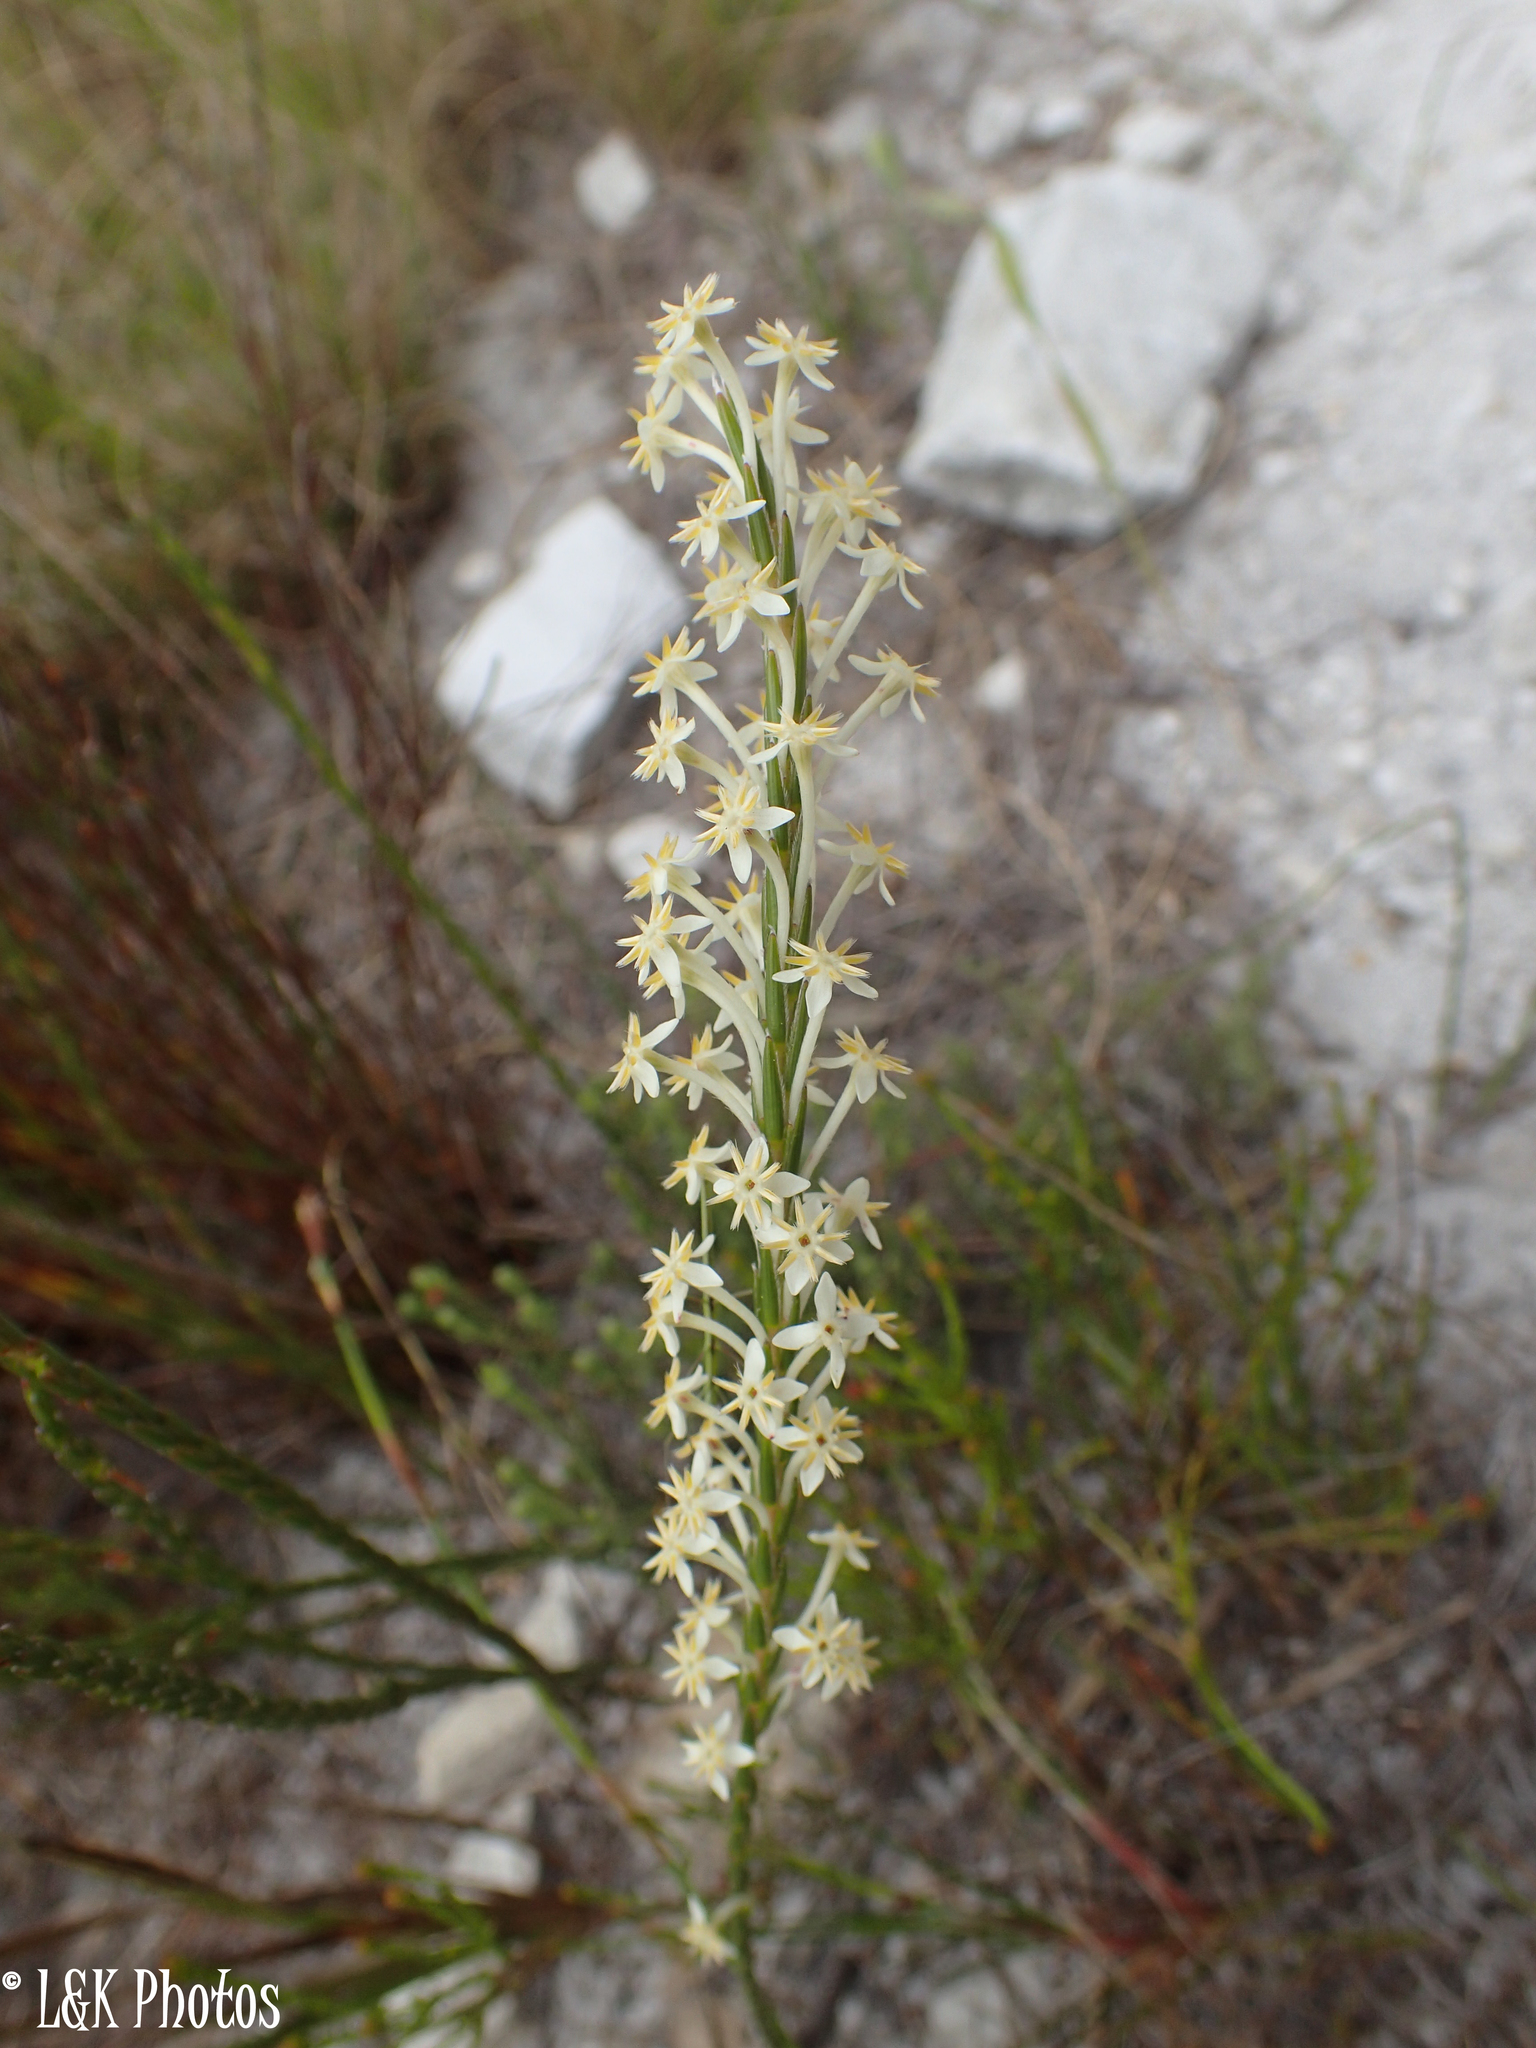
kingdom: Plantae
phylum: Tracheophyta
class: Magnoliopsida
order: Malvales
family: Thymelaeaceae
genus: Struthiola
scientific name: Struthiola ciliata
